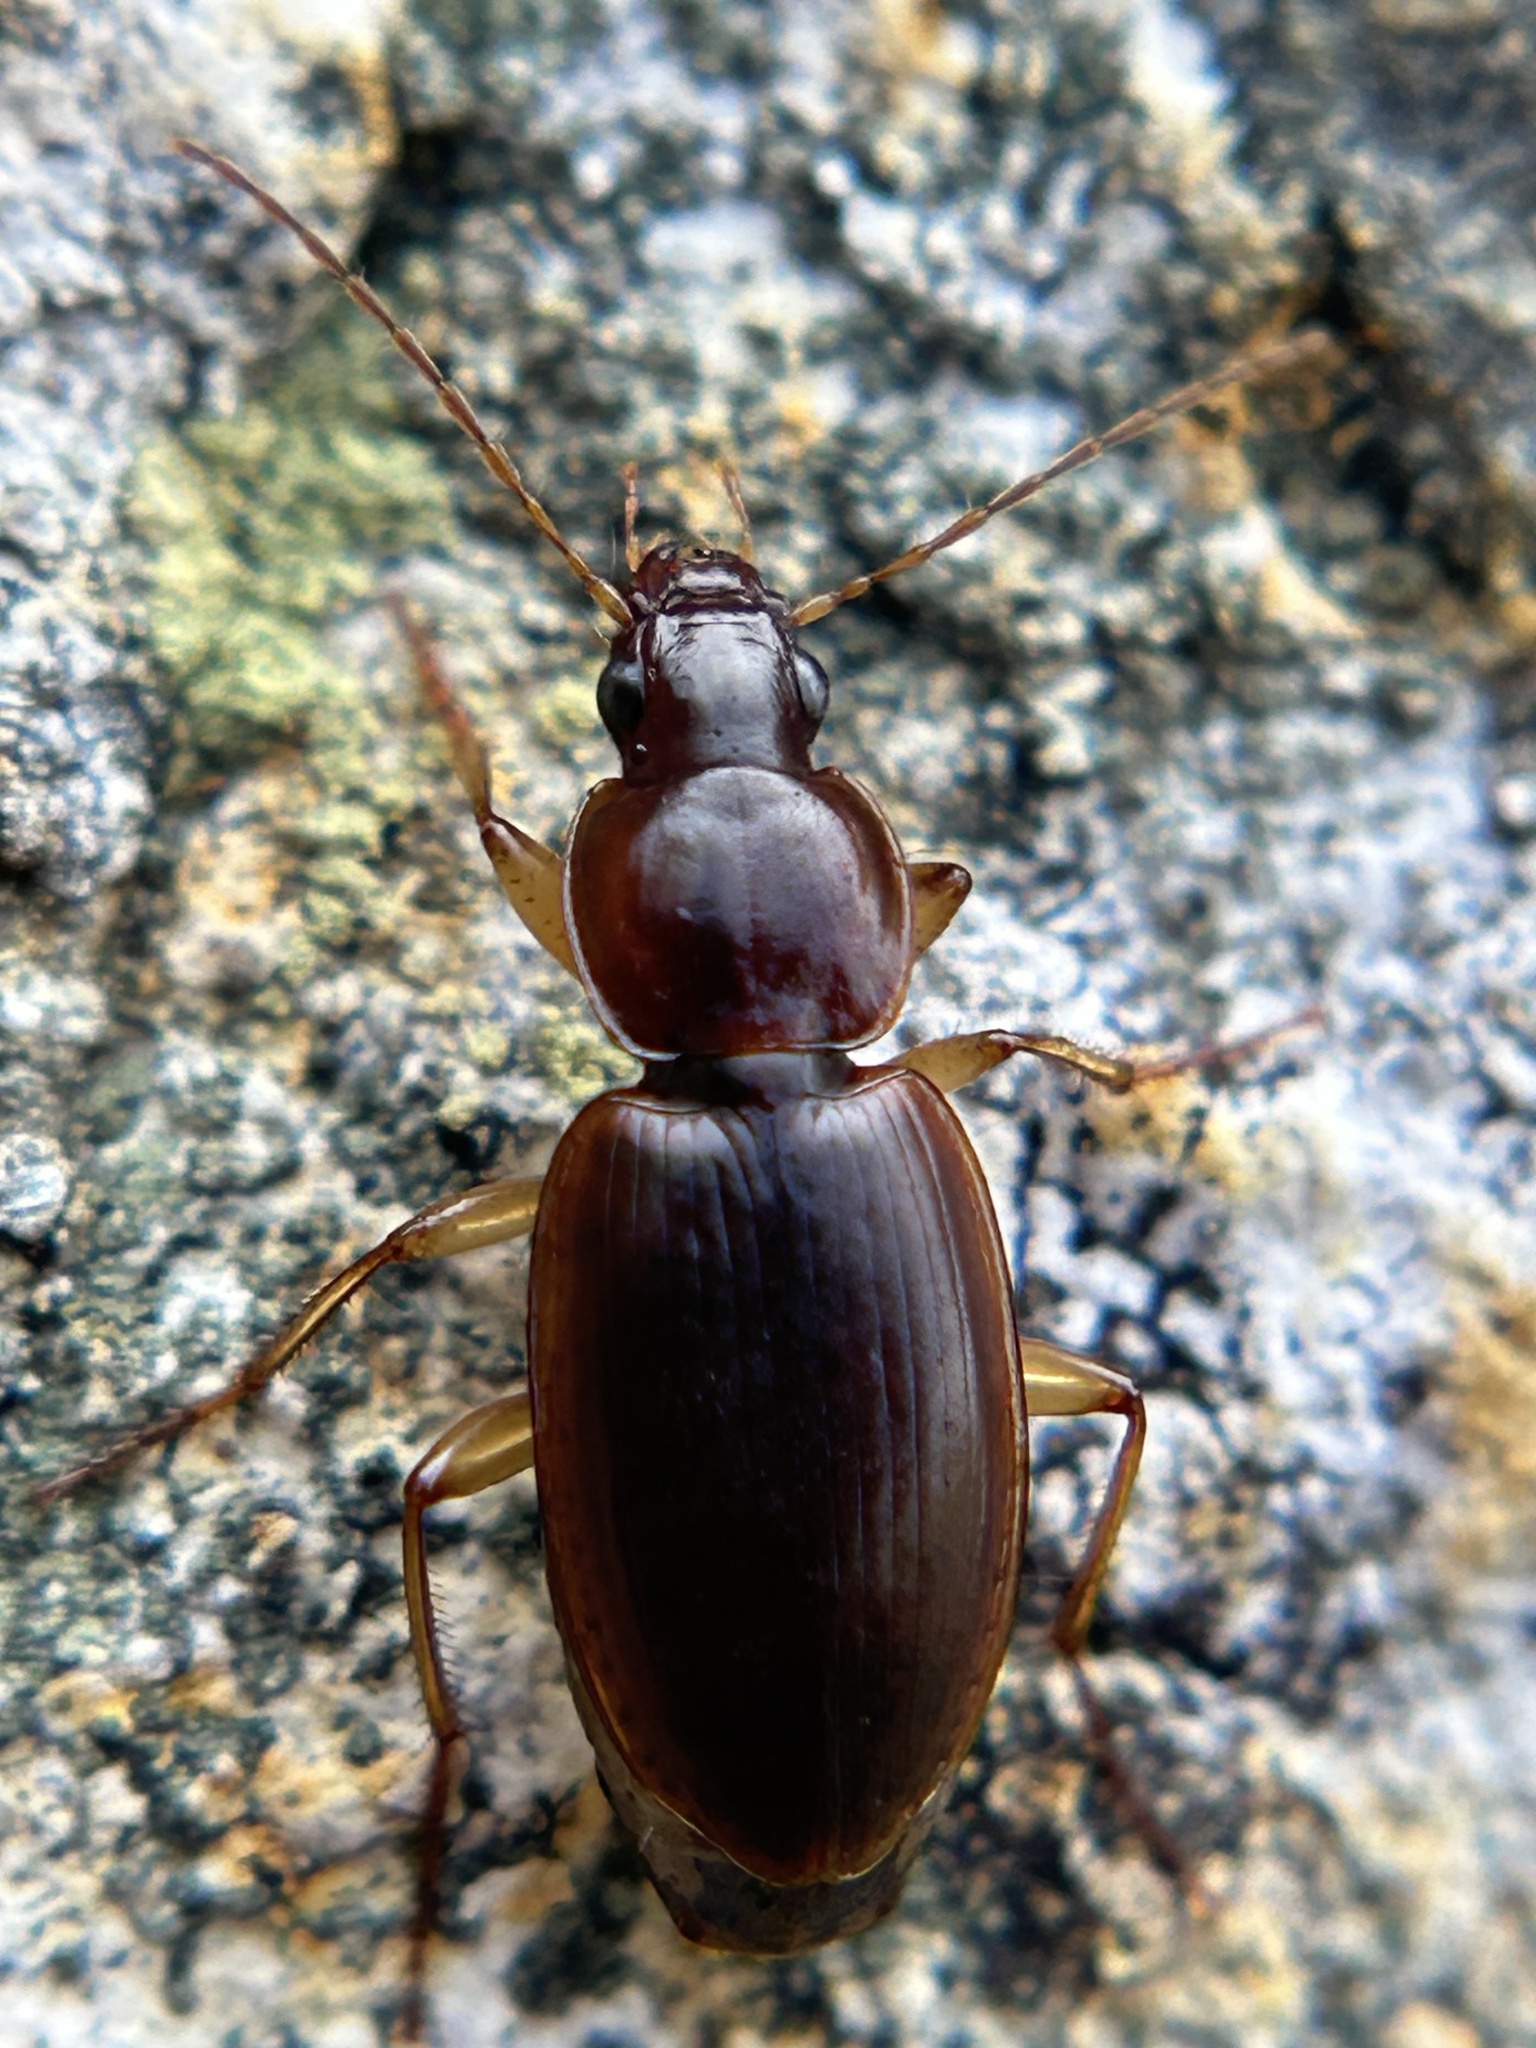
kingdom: Animalia
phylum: Arthropoda
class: Insecta
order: Coleoptera
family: Carabidae
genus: Tanystoma
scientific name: Tanystoma cuyama
